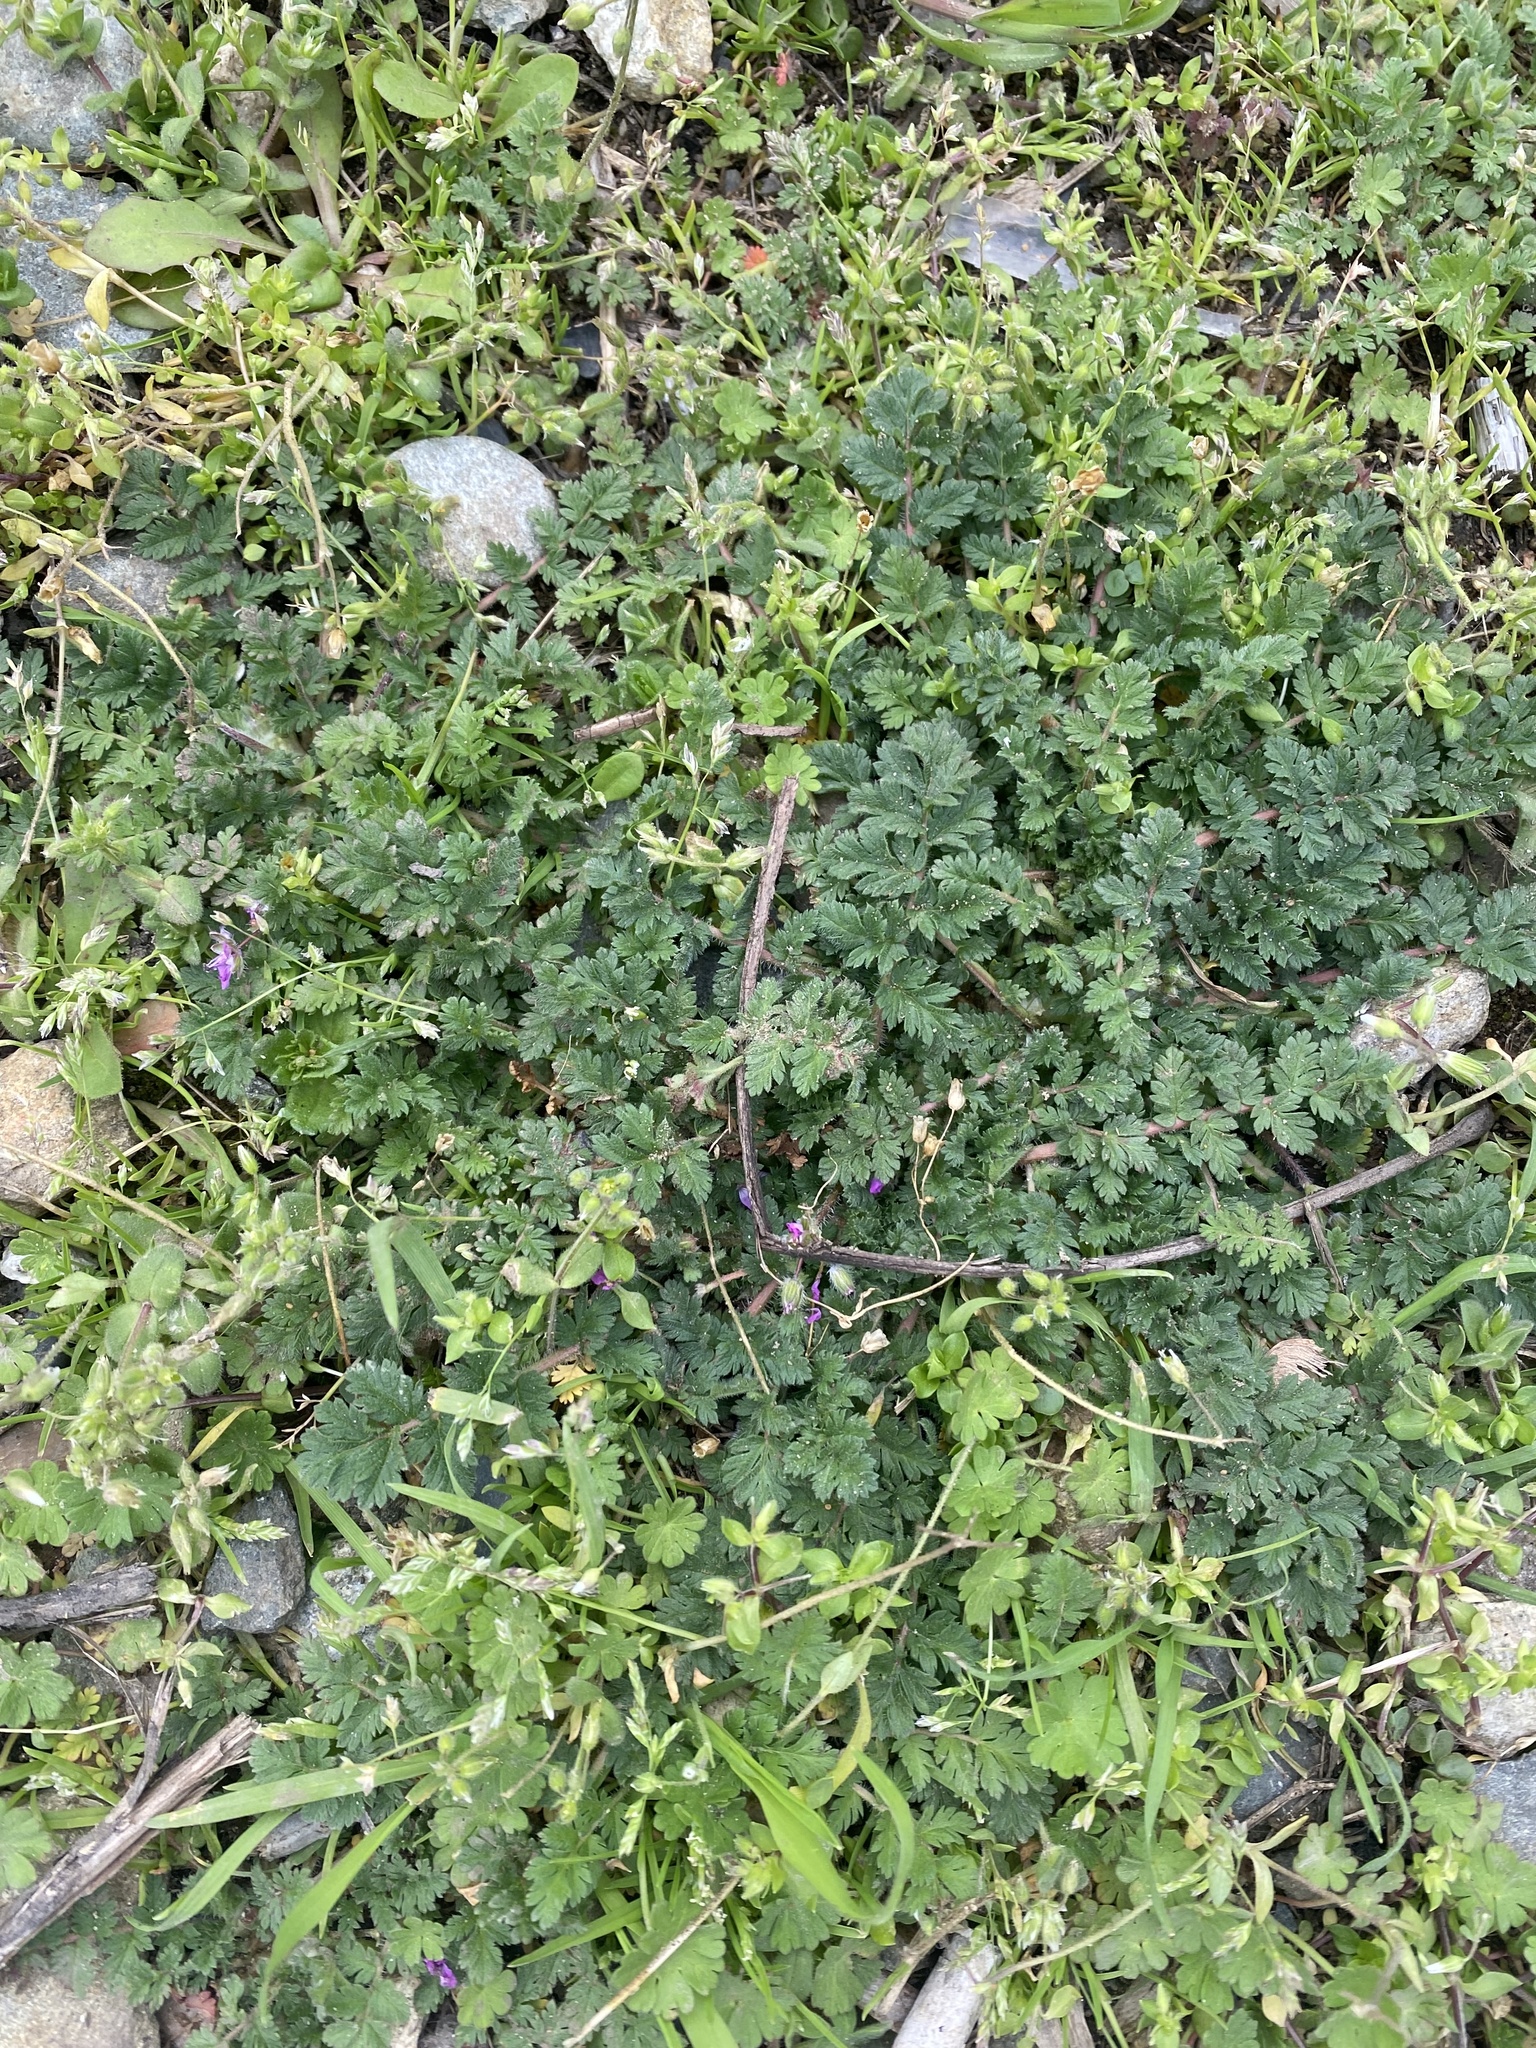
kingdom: Plantae
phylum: Tracheophyta
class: Magnoliopsida
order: Geraniales
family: Geraniaceae
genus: Erodium
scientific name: Erodium cicutarium
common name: Common stork's-bill
